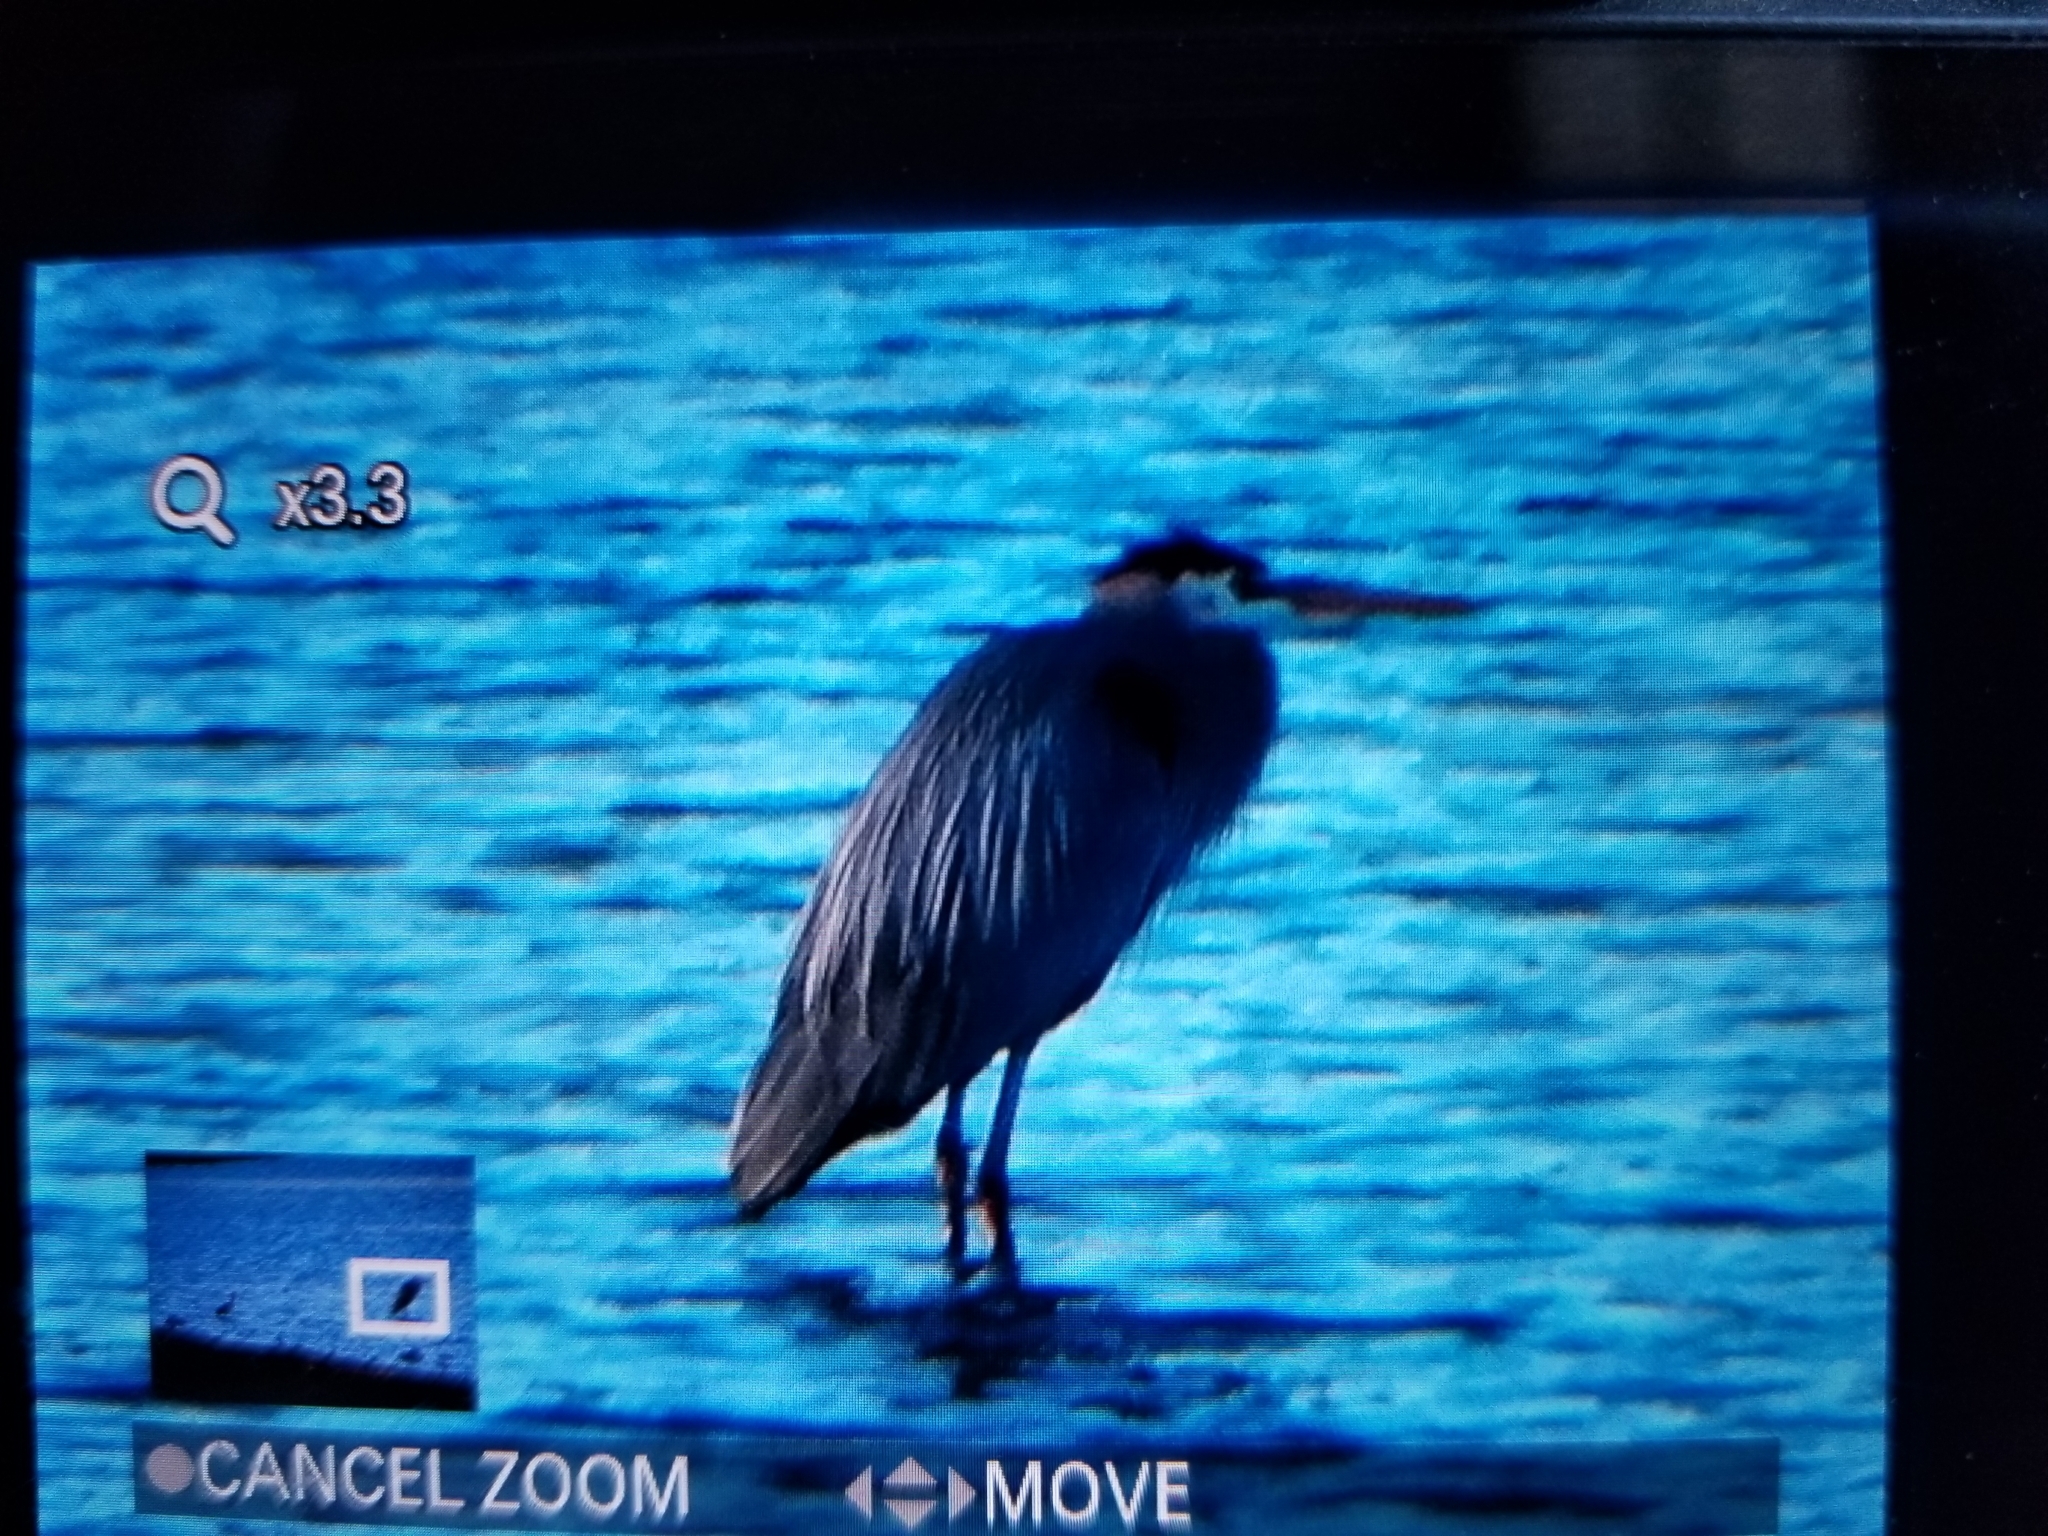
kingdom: Animalia
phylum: Chordata
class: Aves
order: Pelecaniformes
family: Ardeidae
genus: Ardea
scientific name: Ardea herodias
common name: Great blue heron
